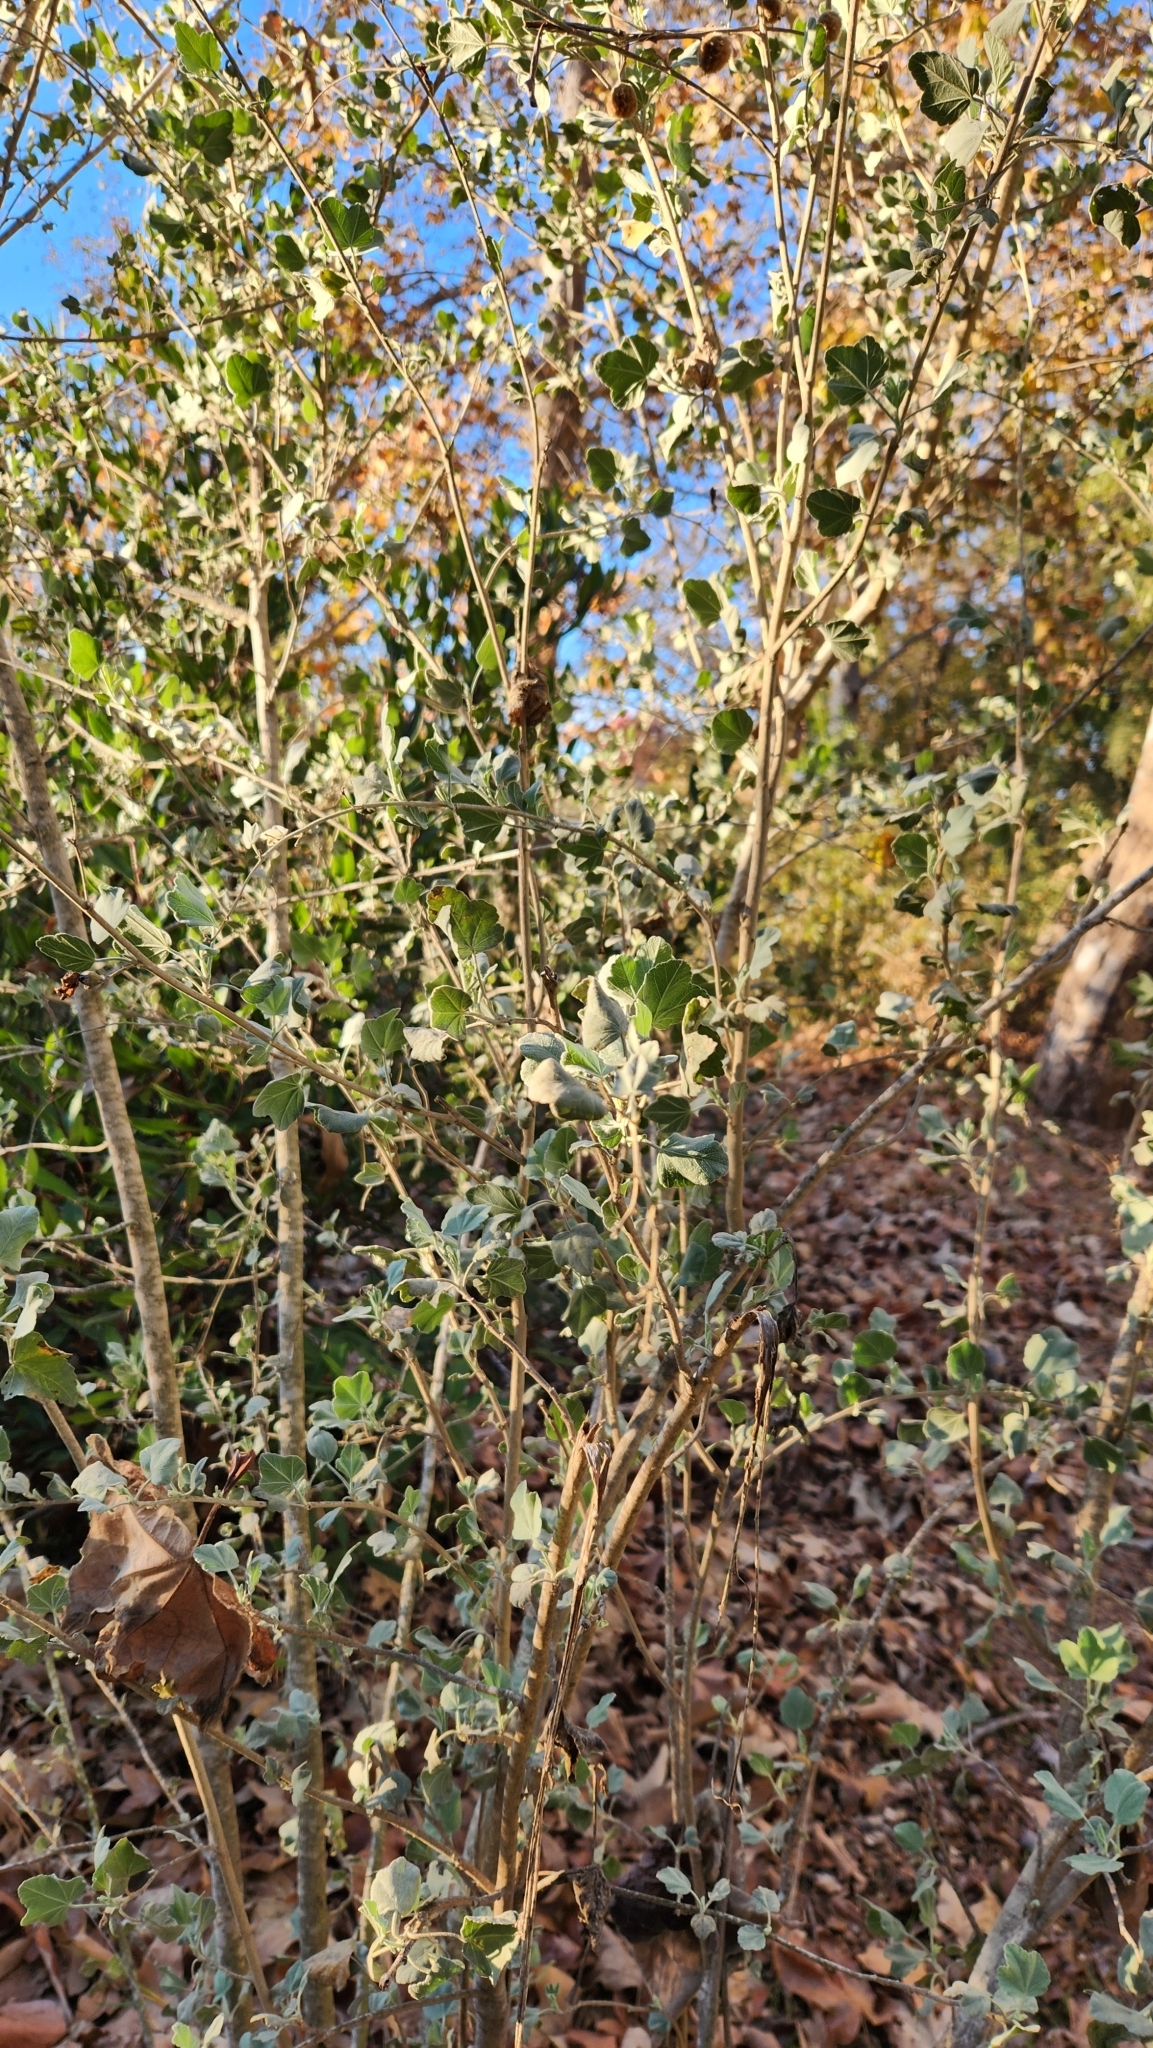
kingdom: Plantae
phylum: Tracheophyta
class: Magnoliopsida
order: Malvales
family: Malvaceae
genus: Malacothamnus
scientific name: Malacothamnus fasciculatus
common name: Sant cruz island bush-mallow
